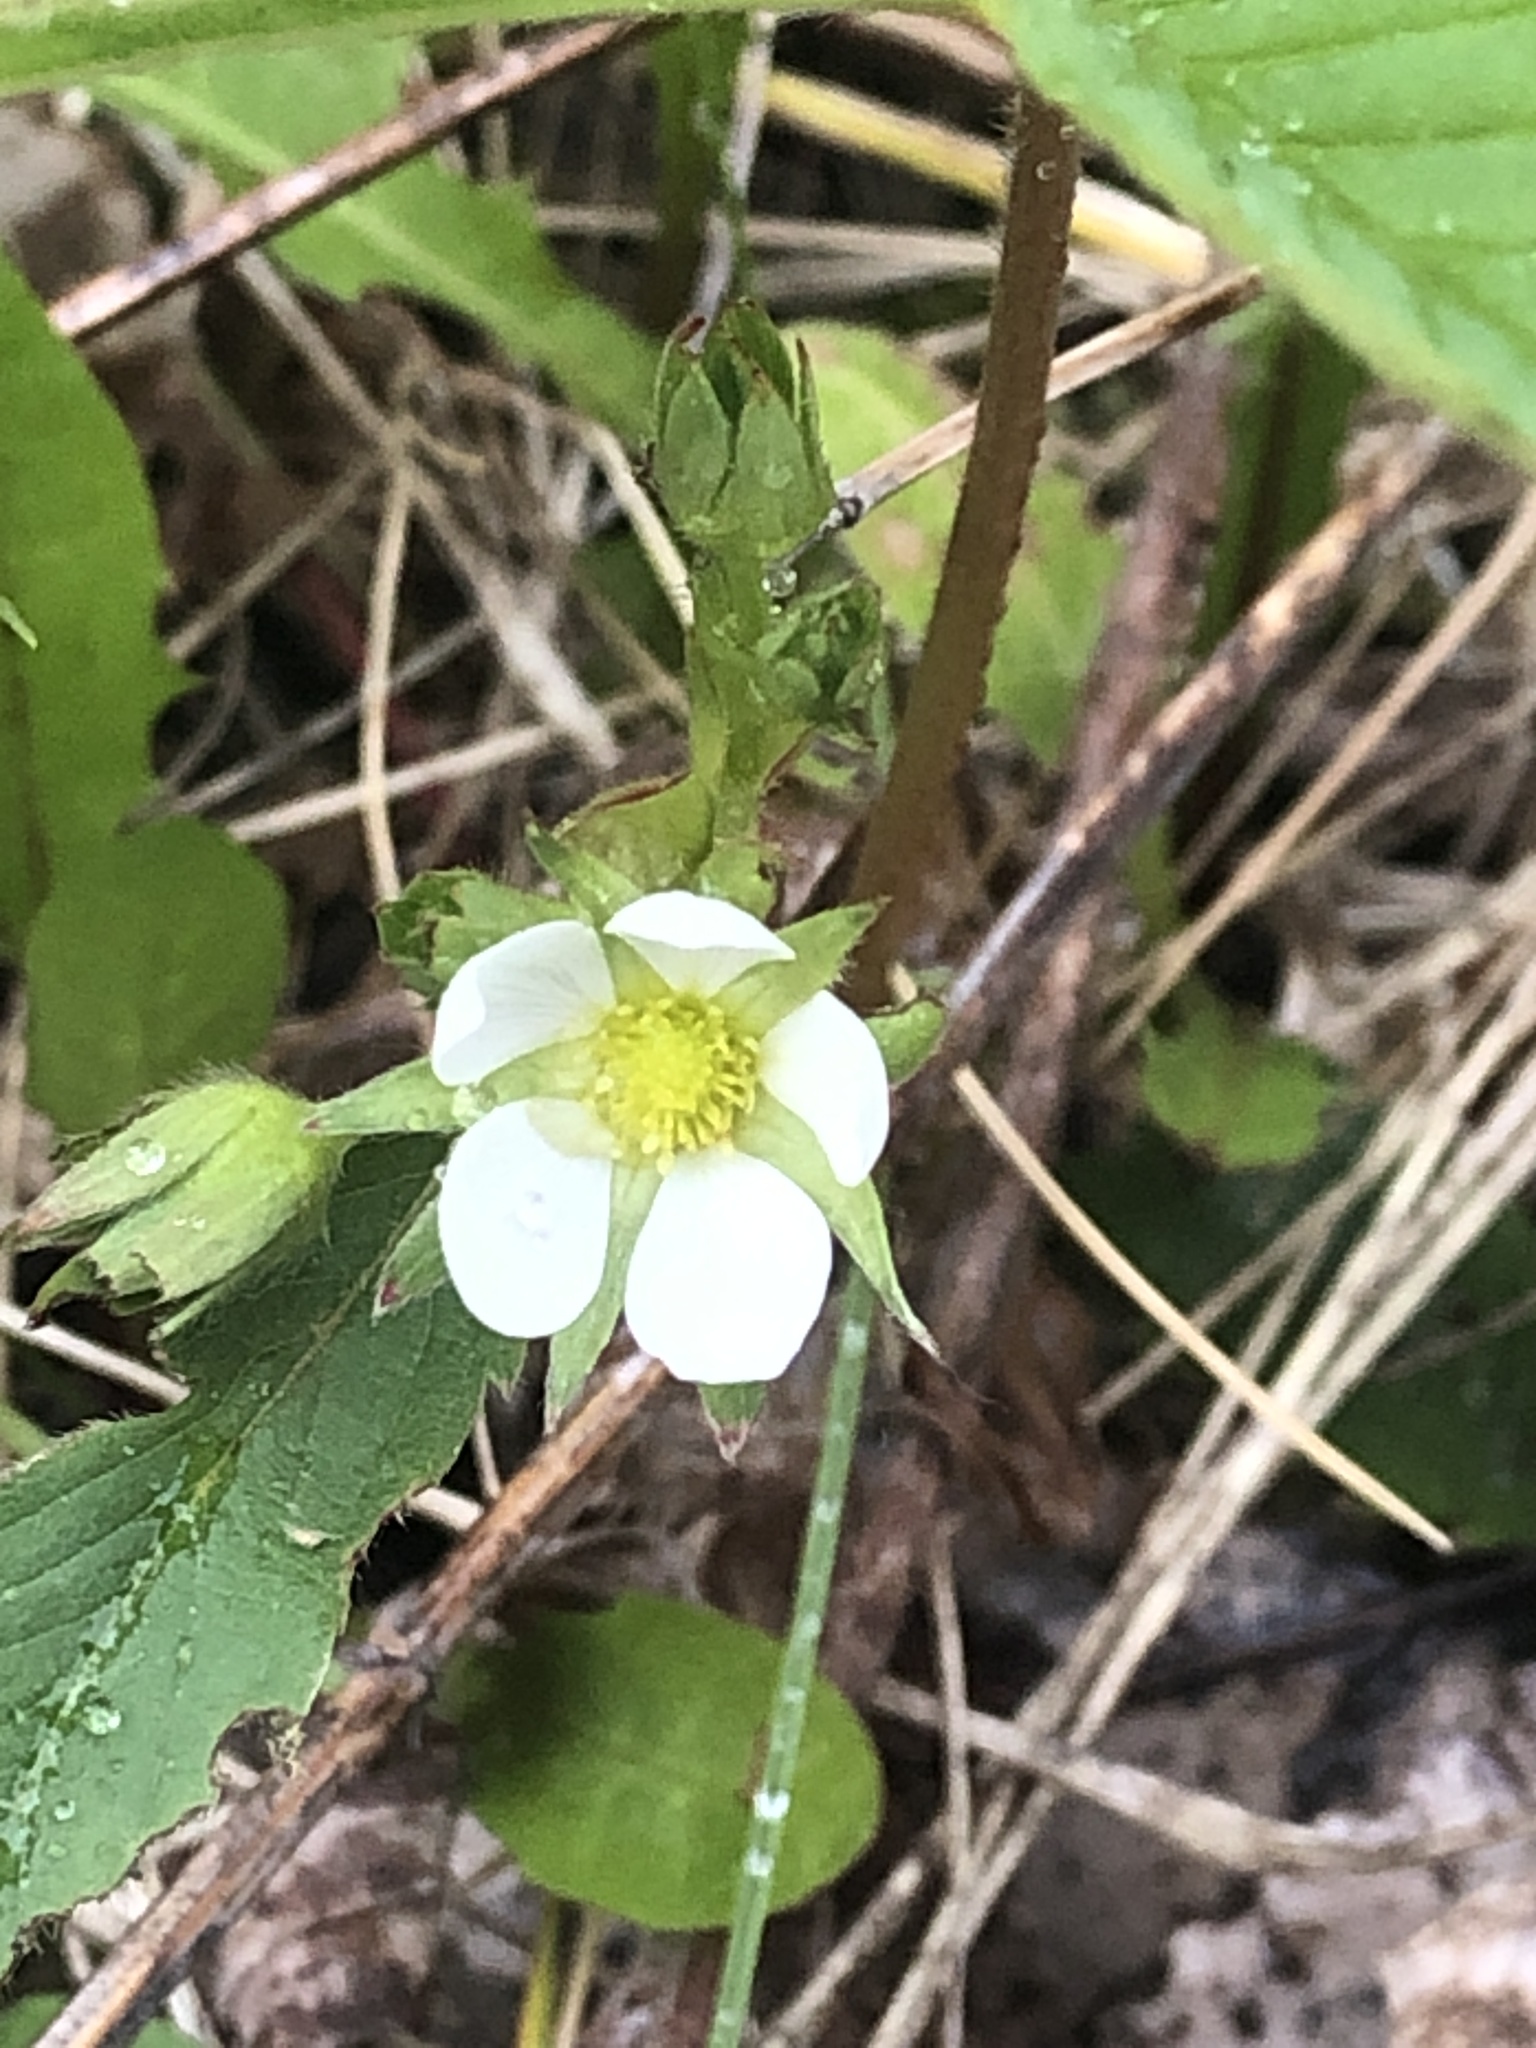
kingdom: Plantae
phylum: Tracheophyta
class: Magnoliopsida
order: Rosales
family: Rosaceae
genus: Fragaria
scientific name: Fragaria virginiana
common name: Thickleaved wild strawberry
